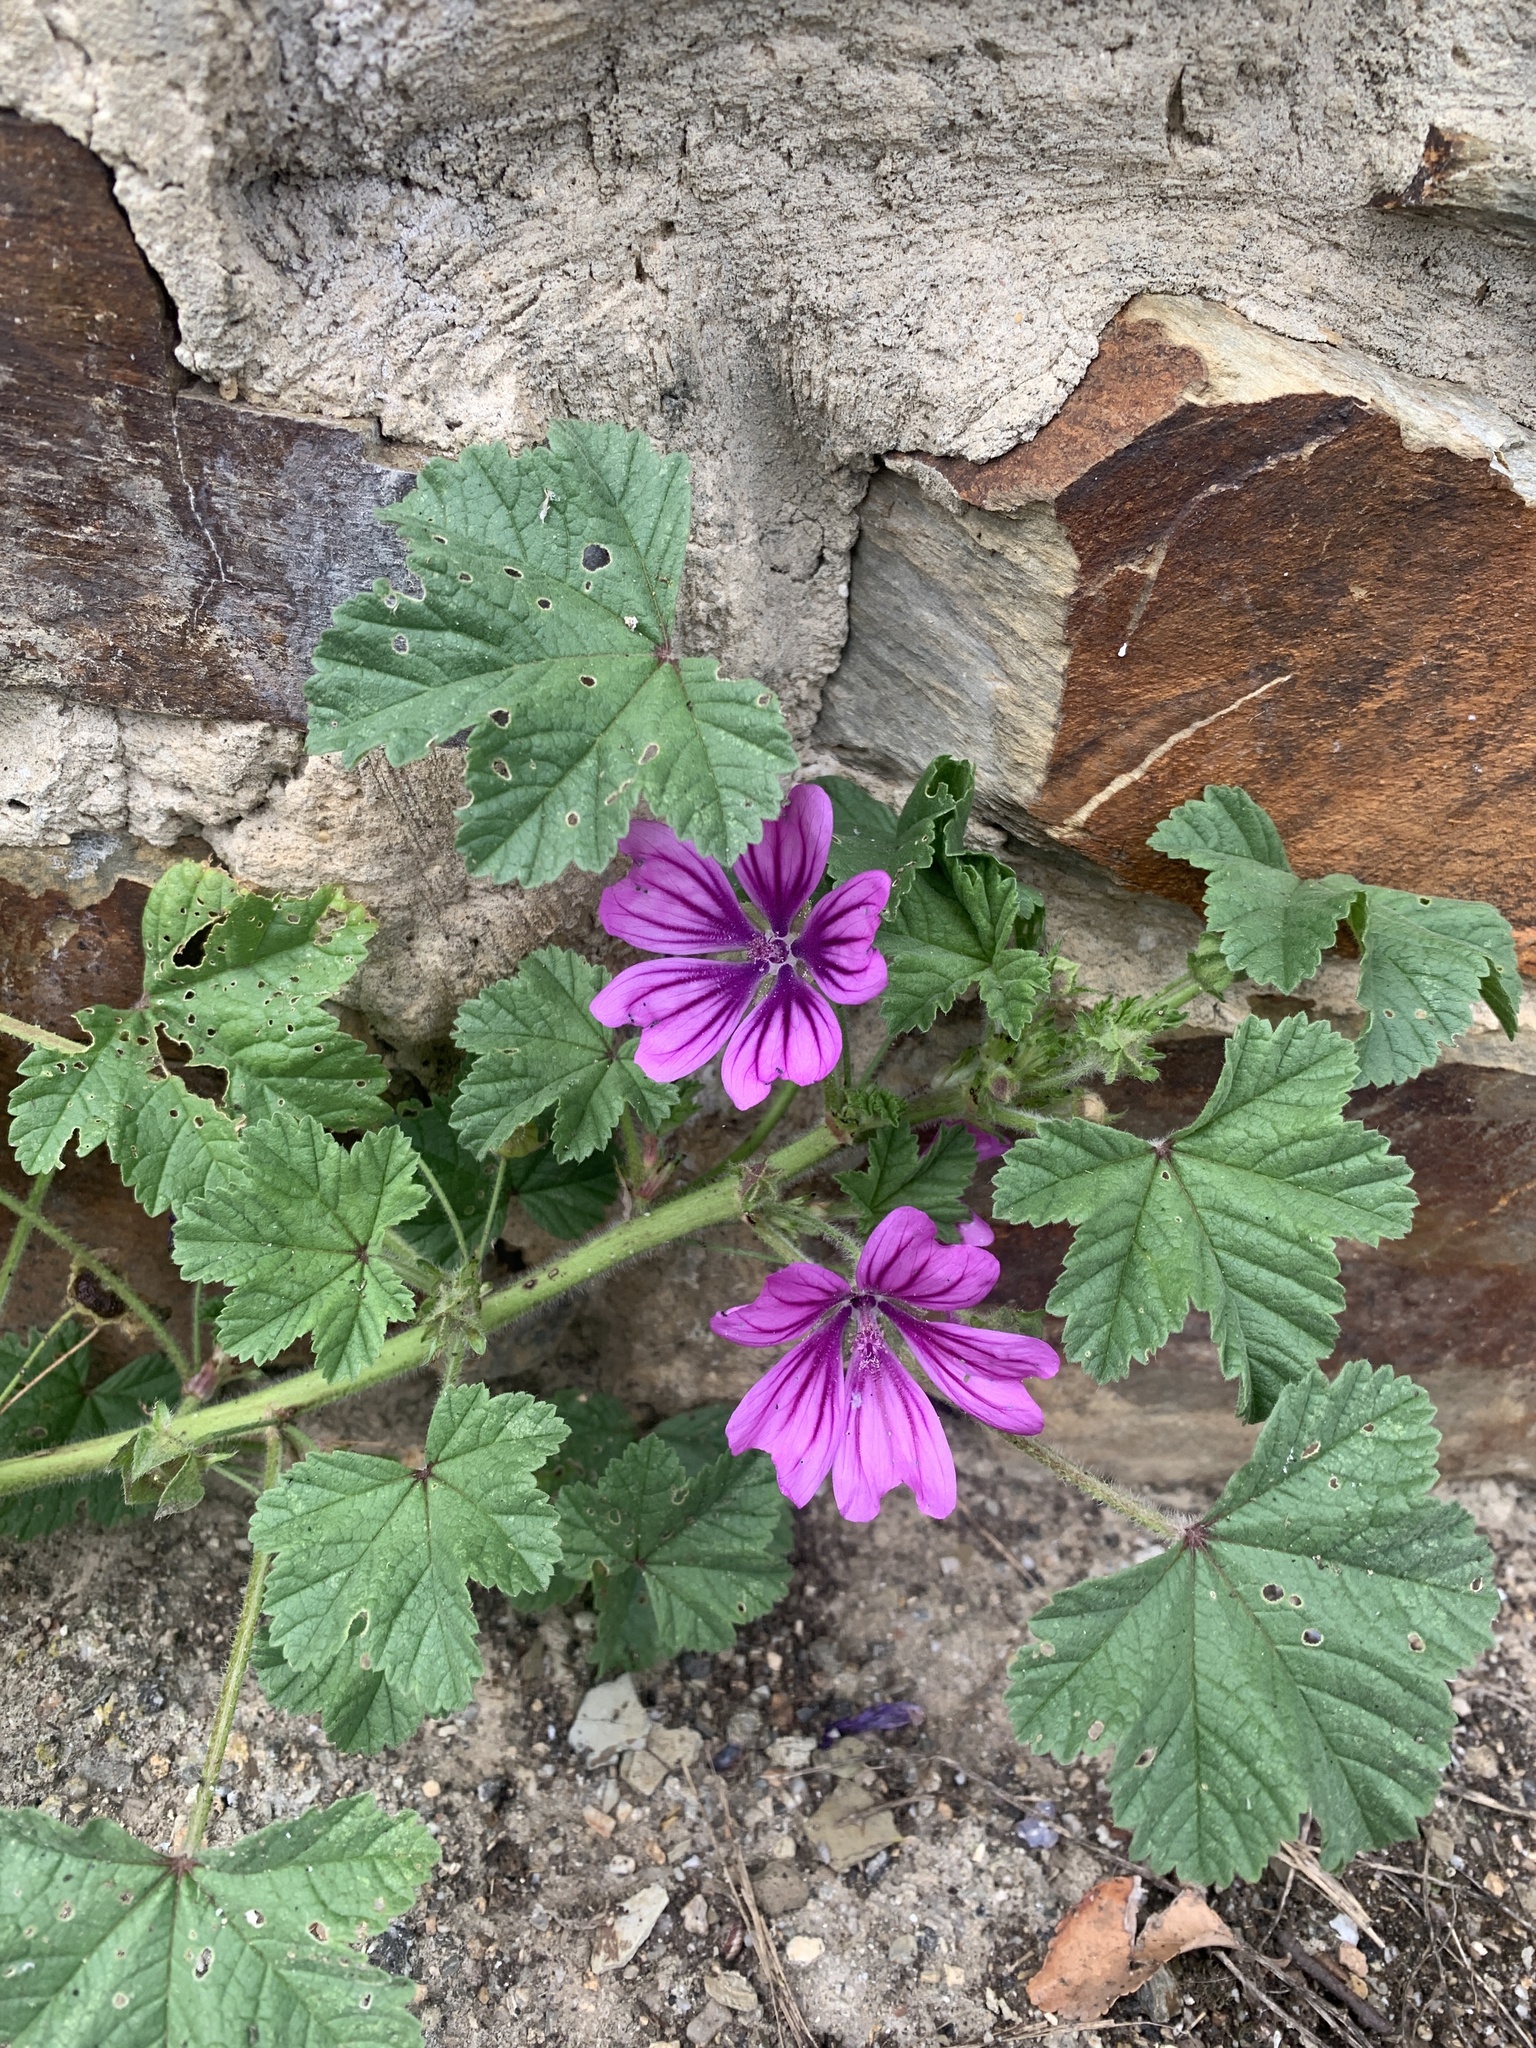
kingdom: Plantae
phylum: Tracheophyta
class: Magnoliopsida
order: Malvales
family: Malvaceae
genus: Malva
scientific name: Malva sylvestris
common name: Common mallow
